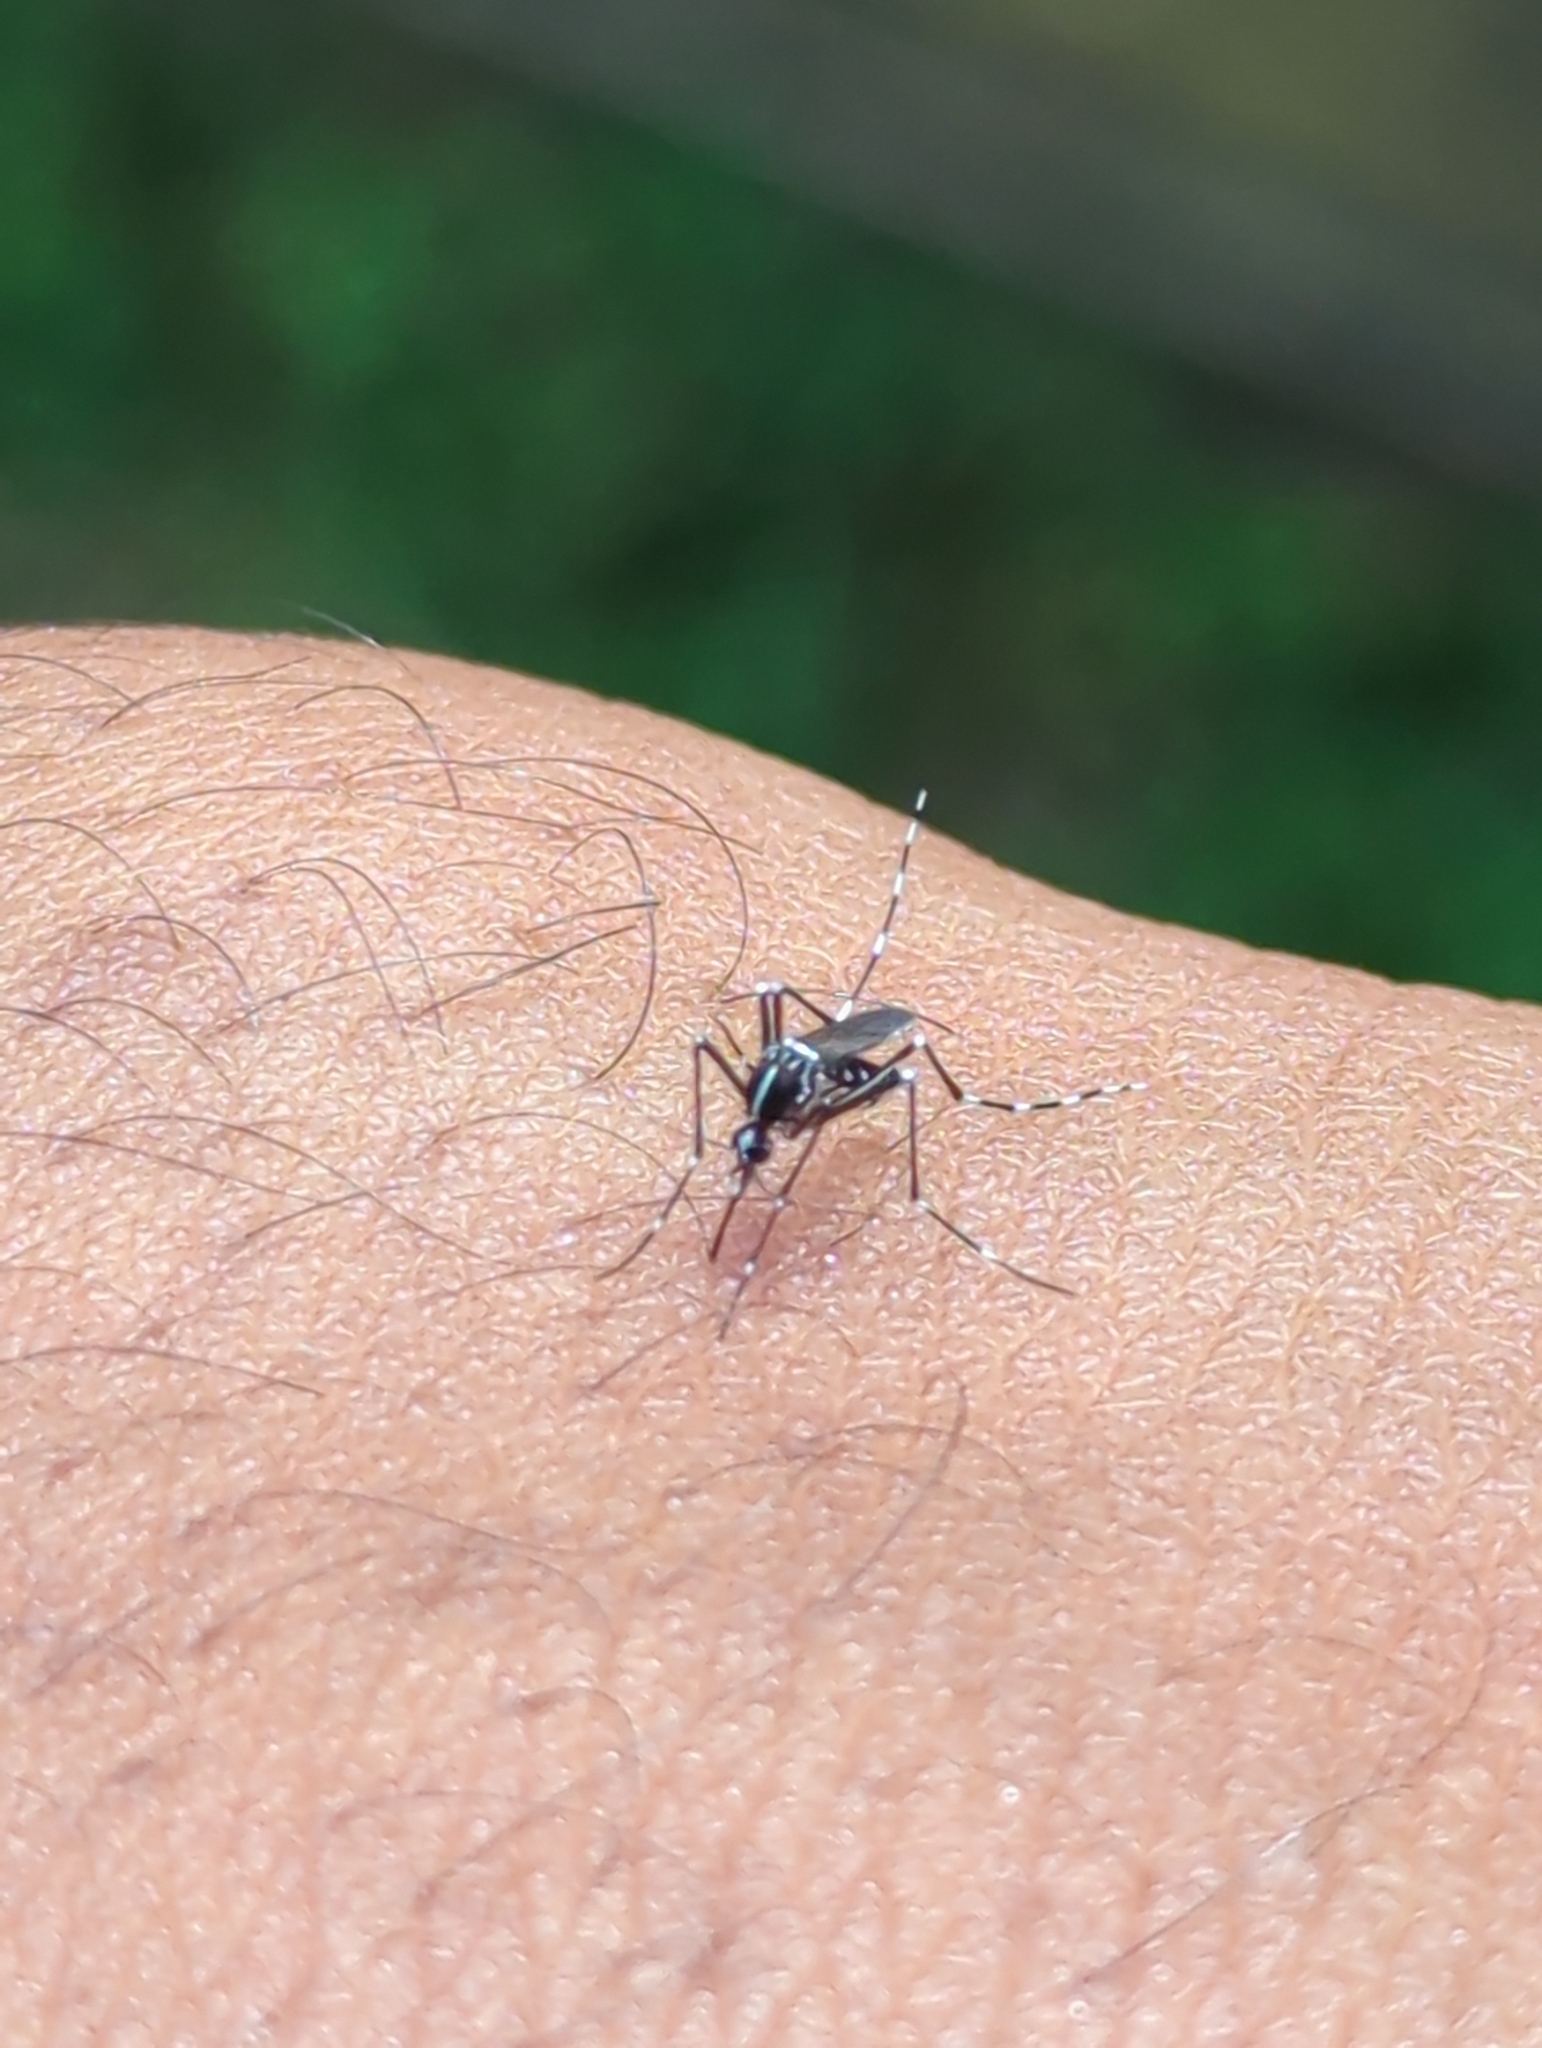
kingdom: Animalia
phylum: Arthropoda
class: Insecta
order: Diptera
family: Culicidae
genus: Aedes
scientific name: Aedes albopictus
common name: Tiger mosquito
